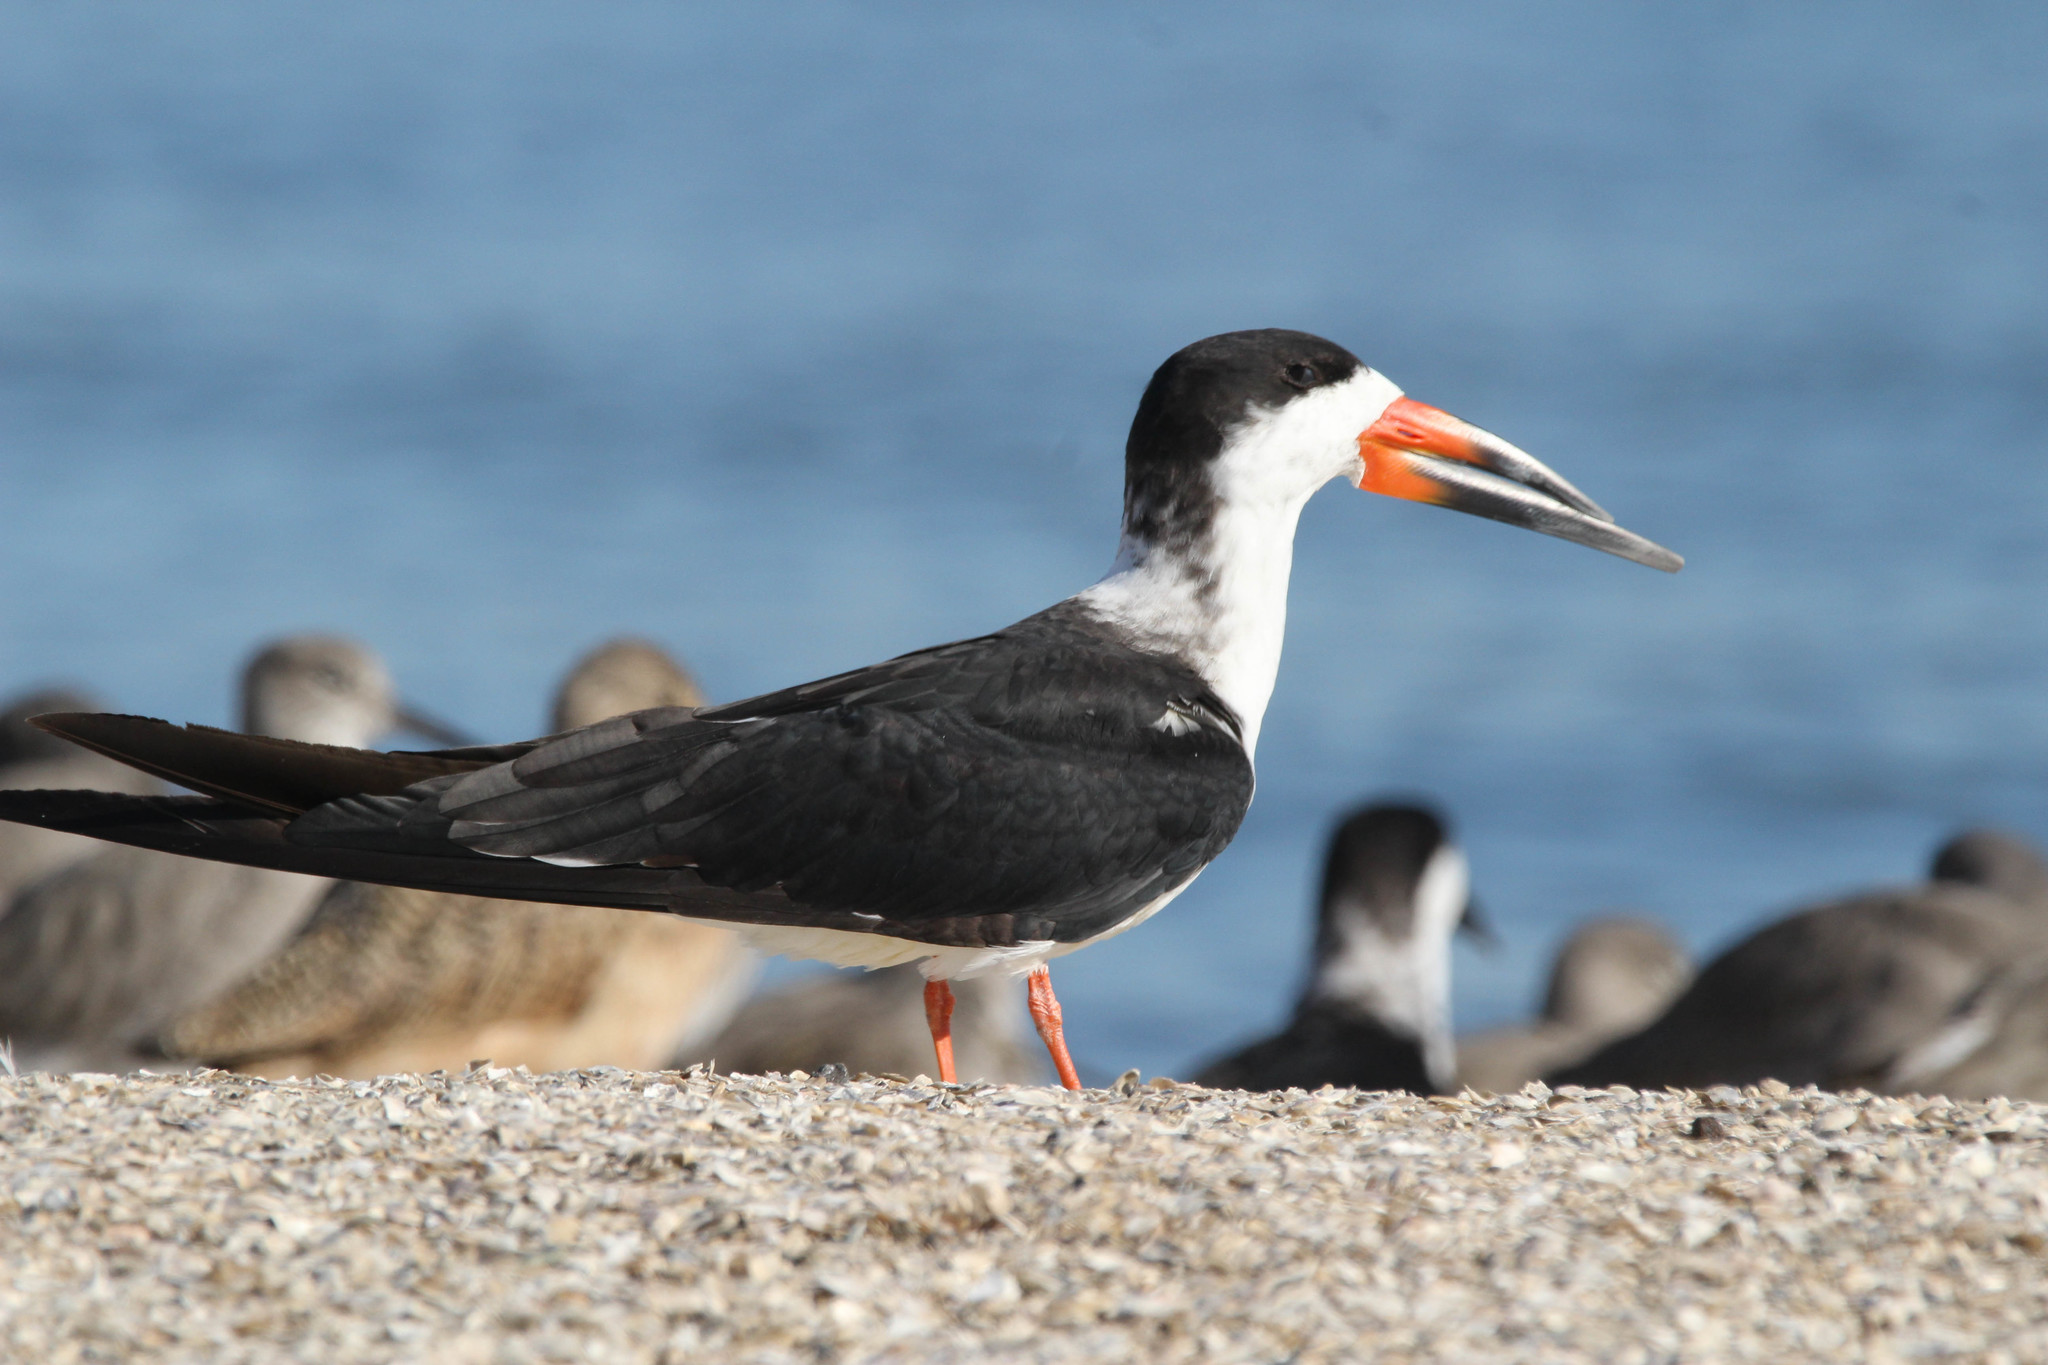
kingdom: Animalia
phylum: Chordata
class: Aves
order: Charadriiformes
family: Laridae
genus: Rynchops
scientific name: Rynchops niger
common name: Black skimmer
